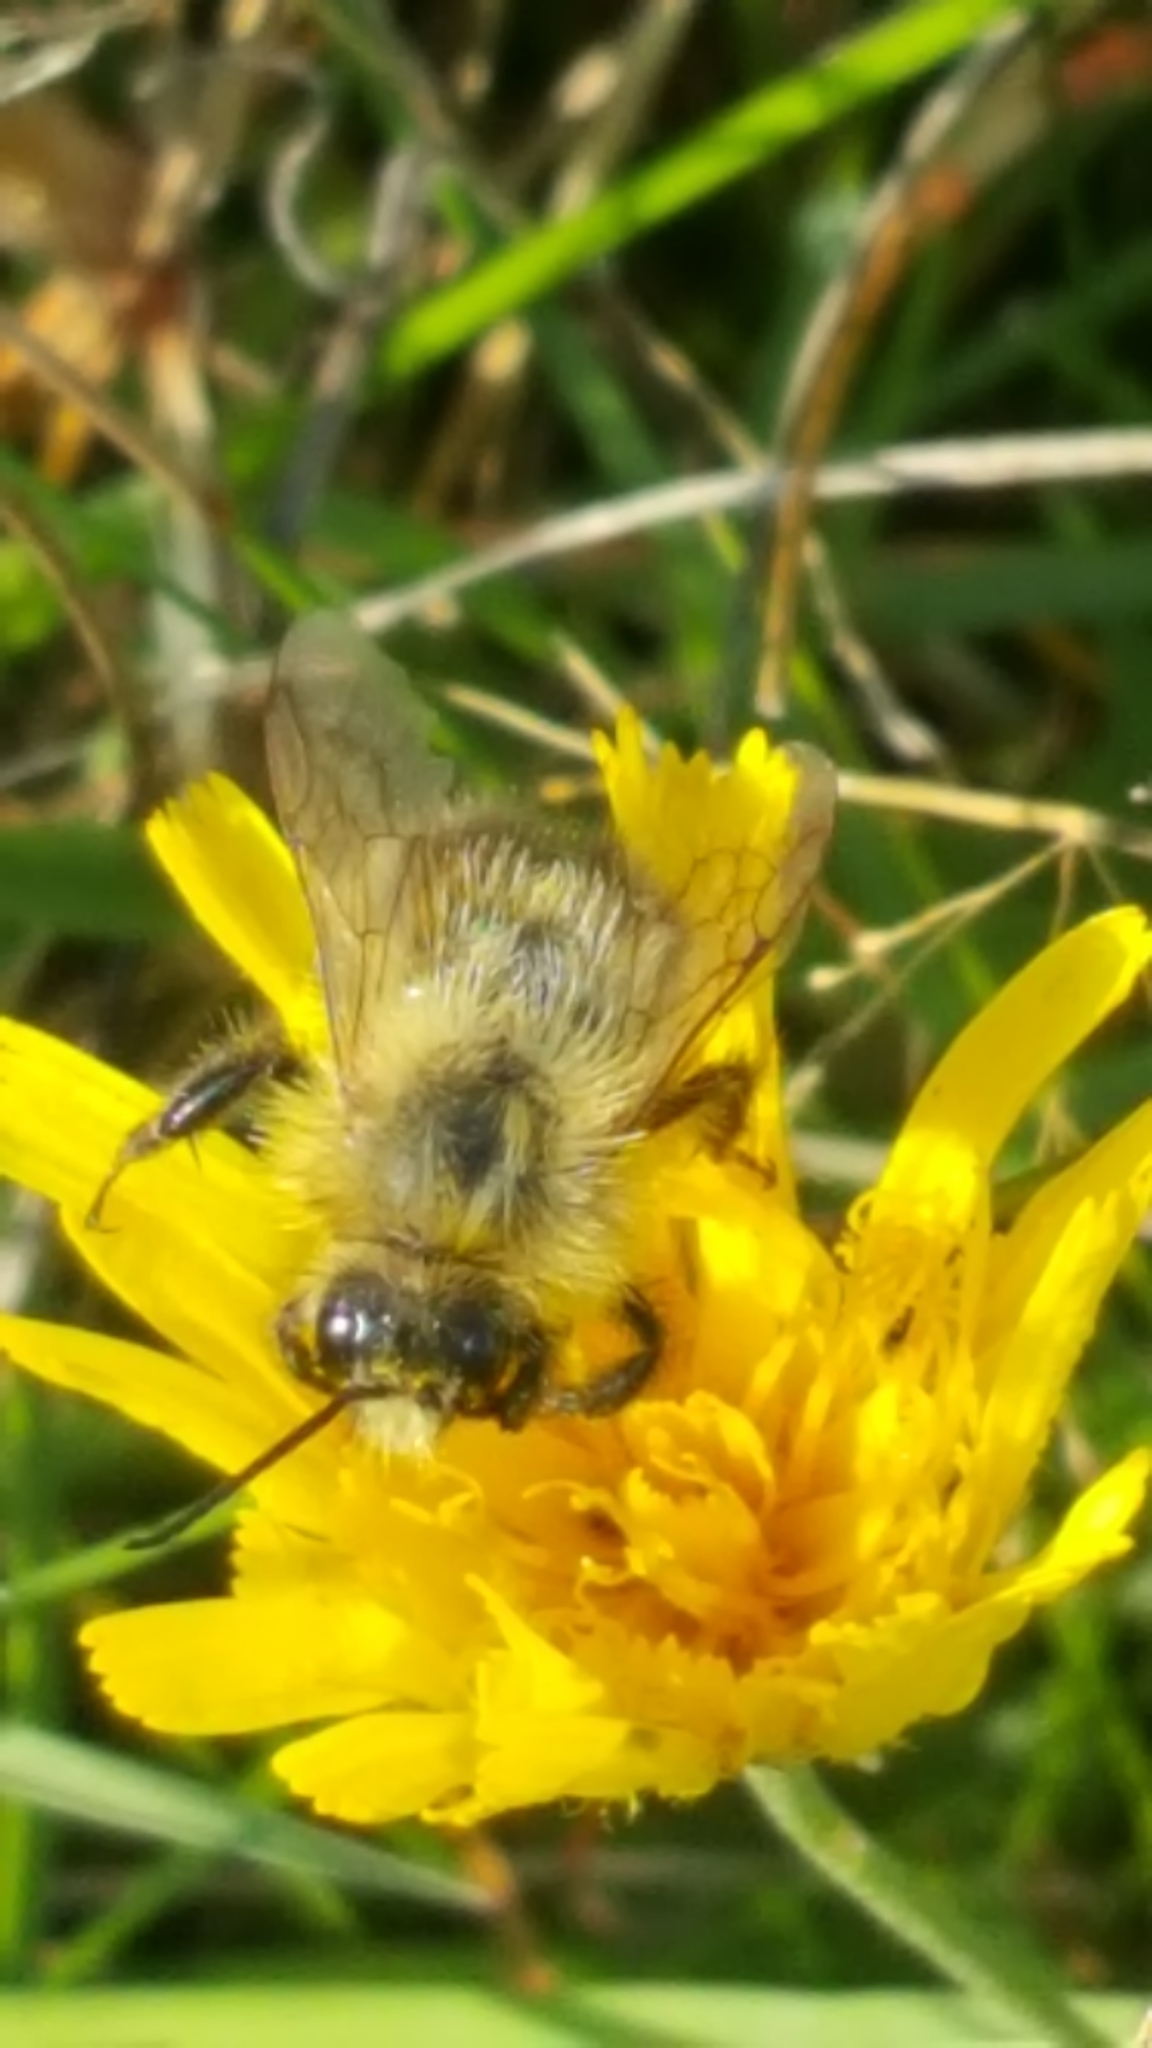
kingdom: Animalia
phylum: Arthropoda
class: Insecta
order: Hymenoptera
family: Apidae
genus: Bombus
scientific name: Bombus pascuorum
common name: Common carder bee
